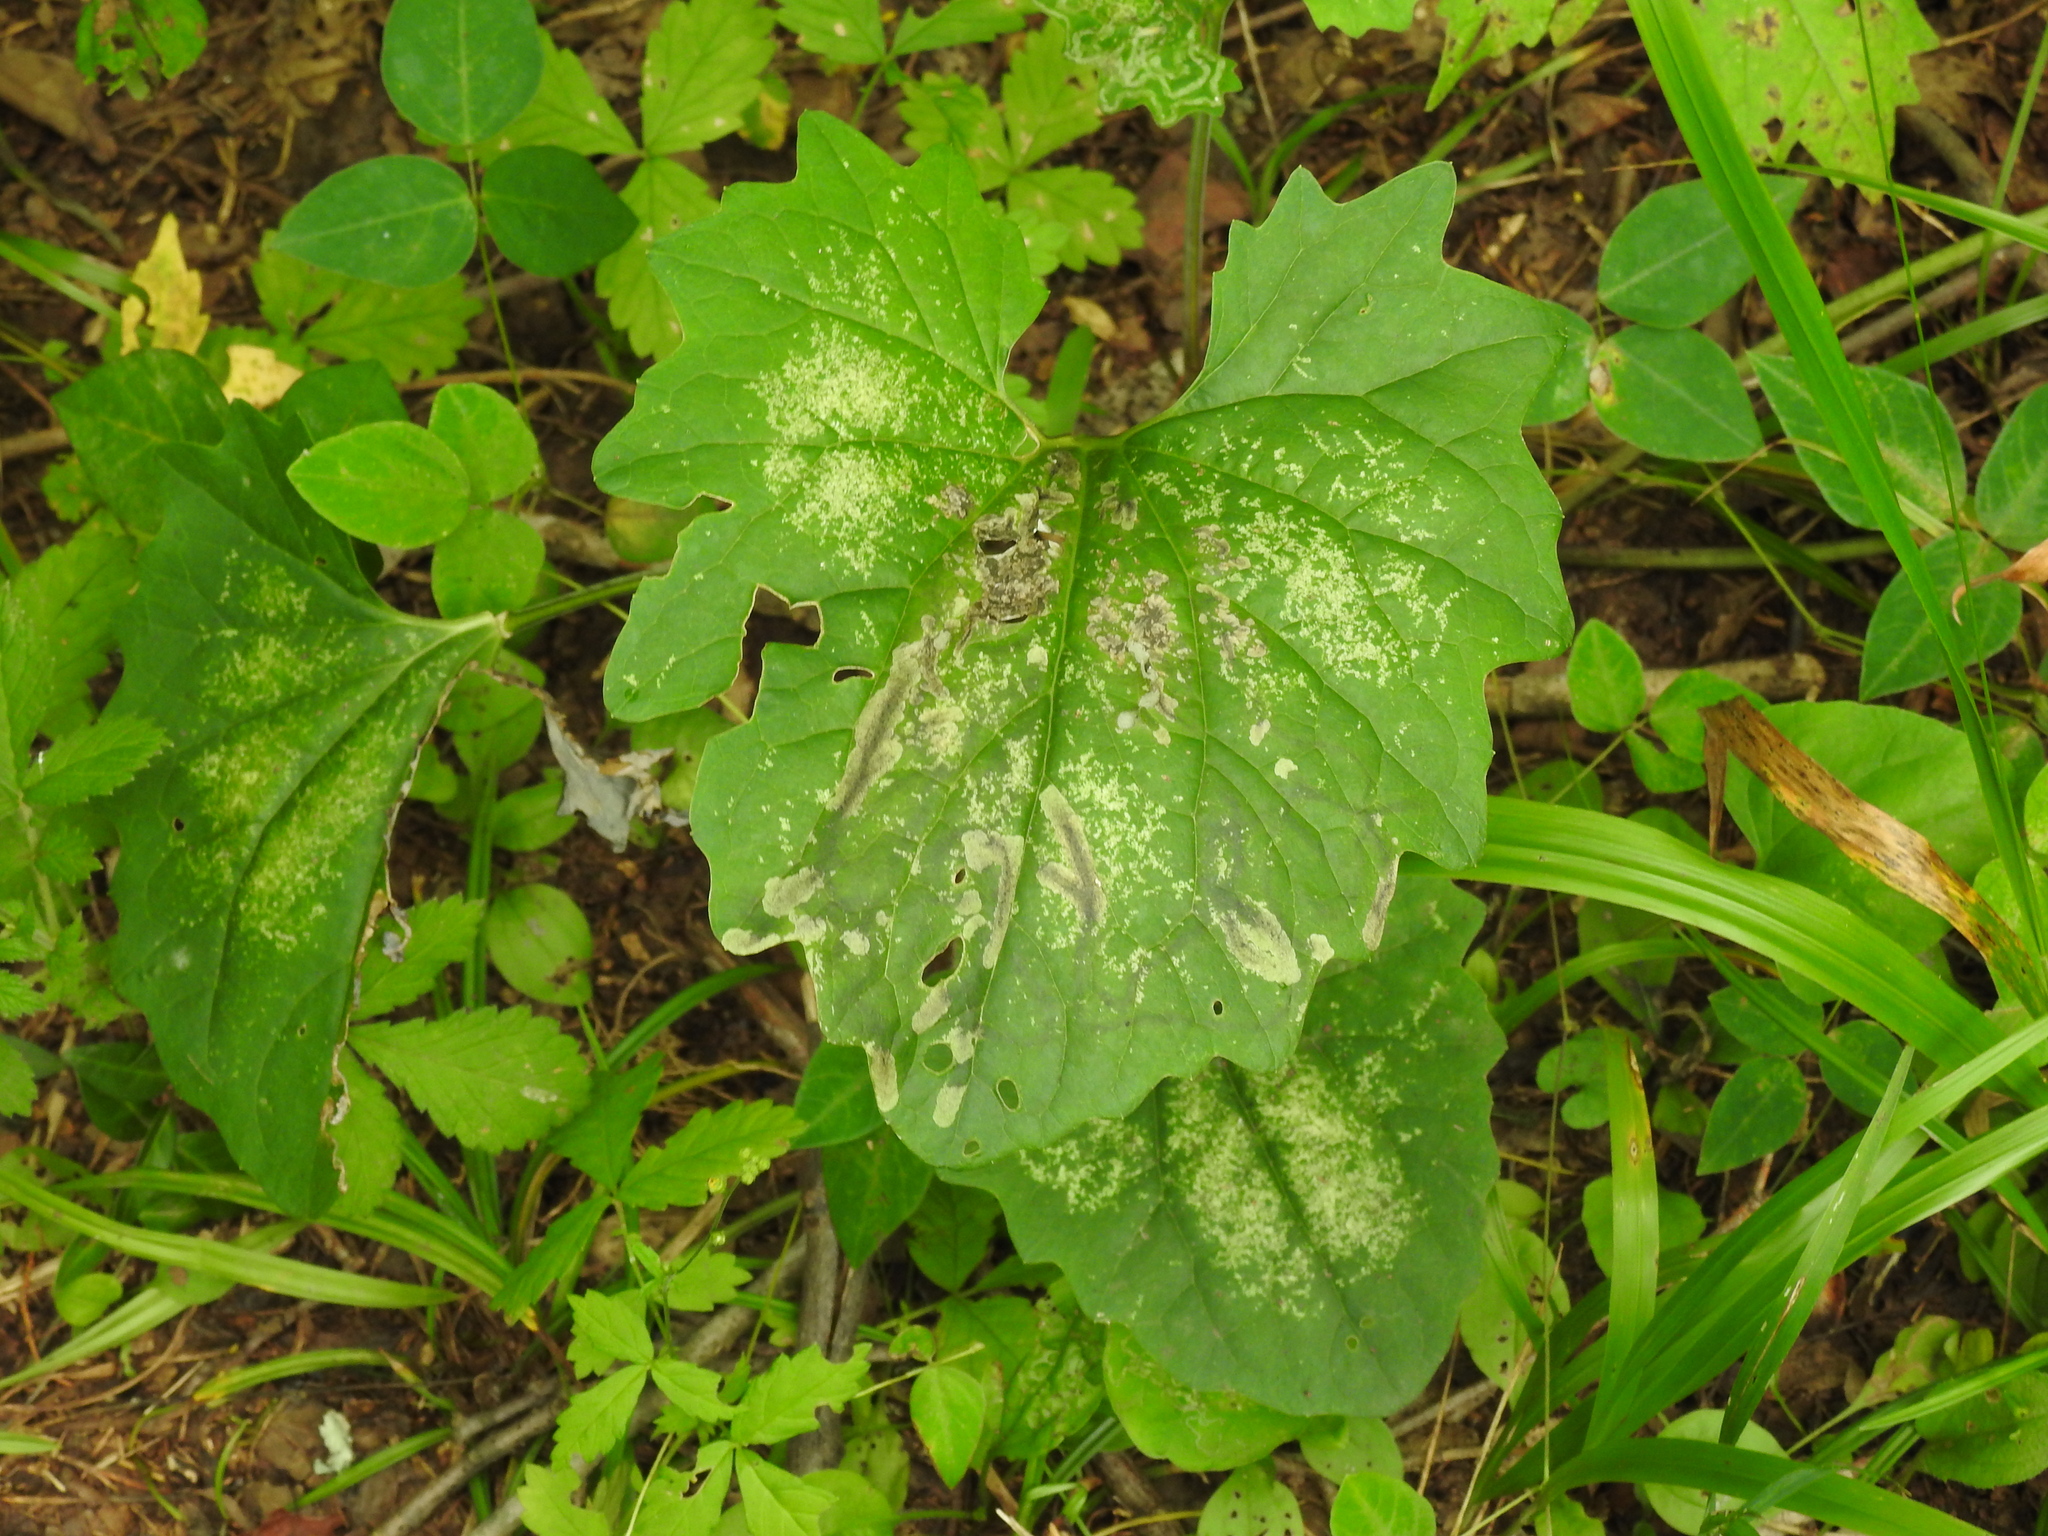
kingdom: Animalia
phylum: Arthropoda
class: Insecta
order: Diptera
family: Tephritidae
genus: Trypeta
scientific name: Trypeta flaveola
